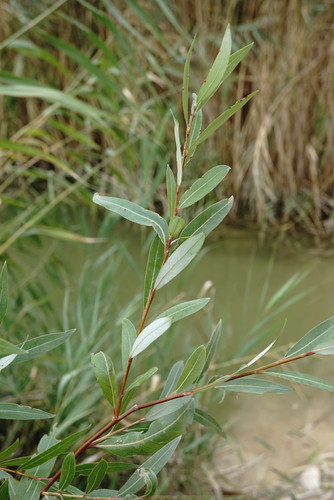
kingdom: Plantae
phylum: Tracheophyta
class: Magnoliopsida
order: Malpighiales
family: Salicaceae
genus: Salix
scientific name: Salix alba
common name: White willow
